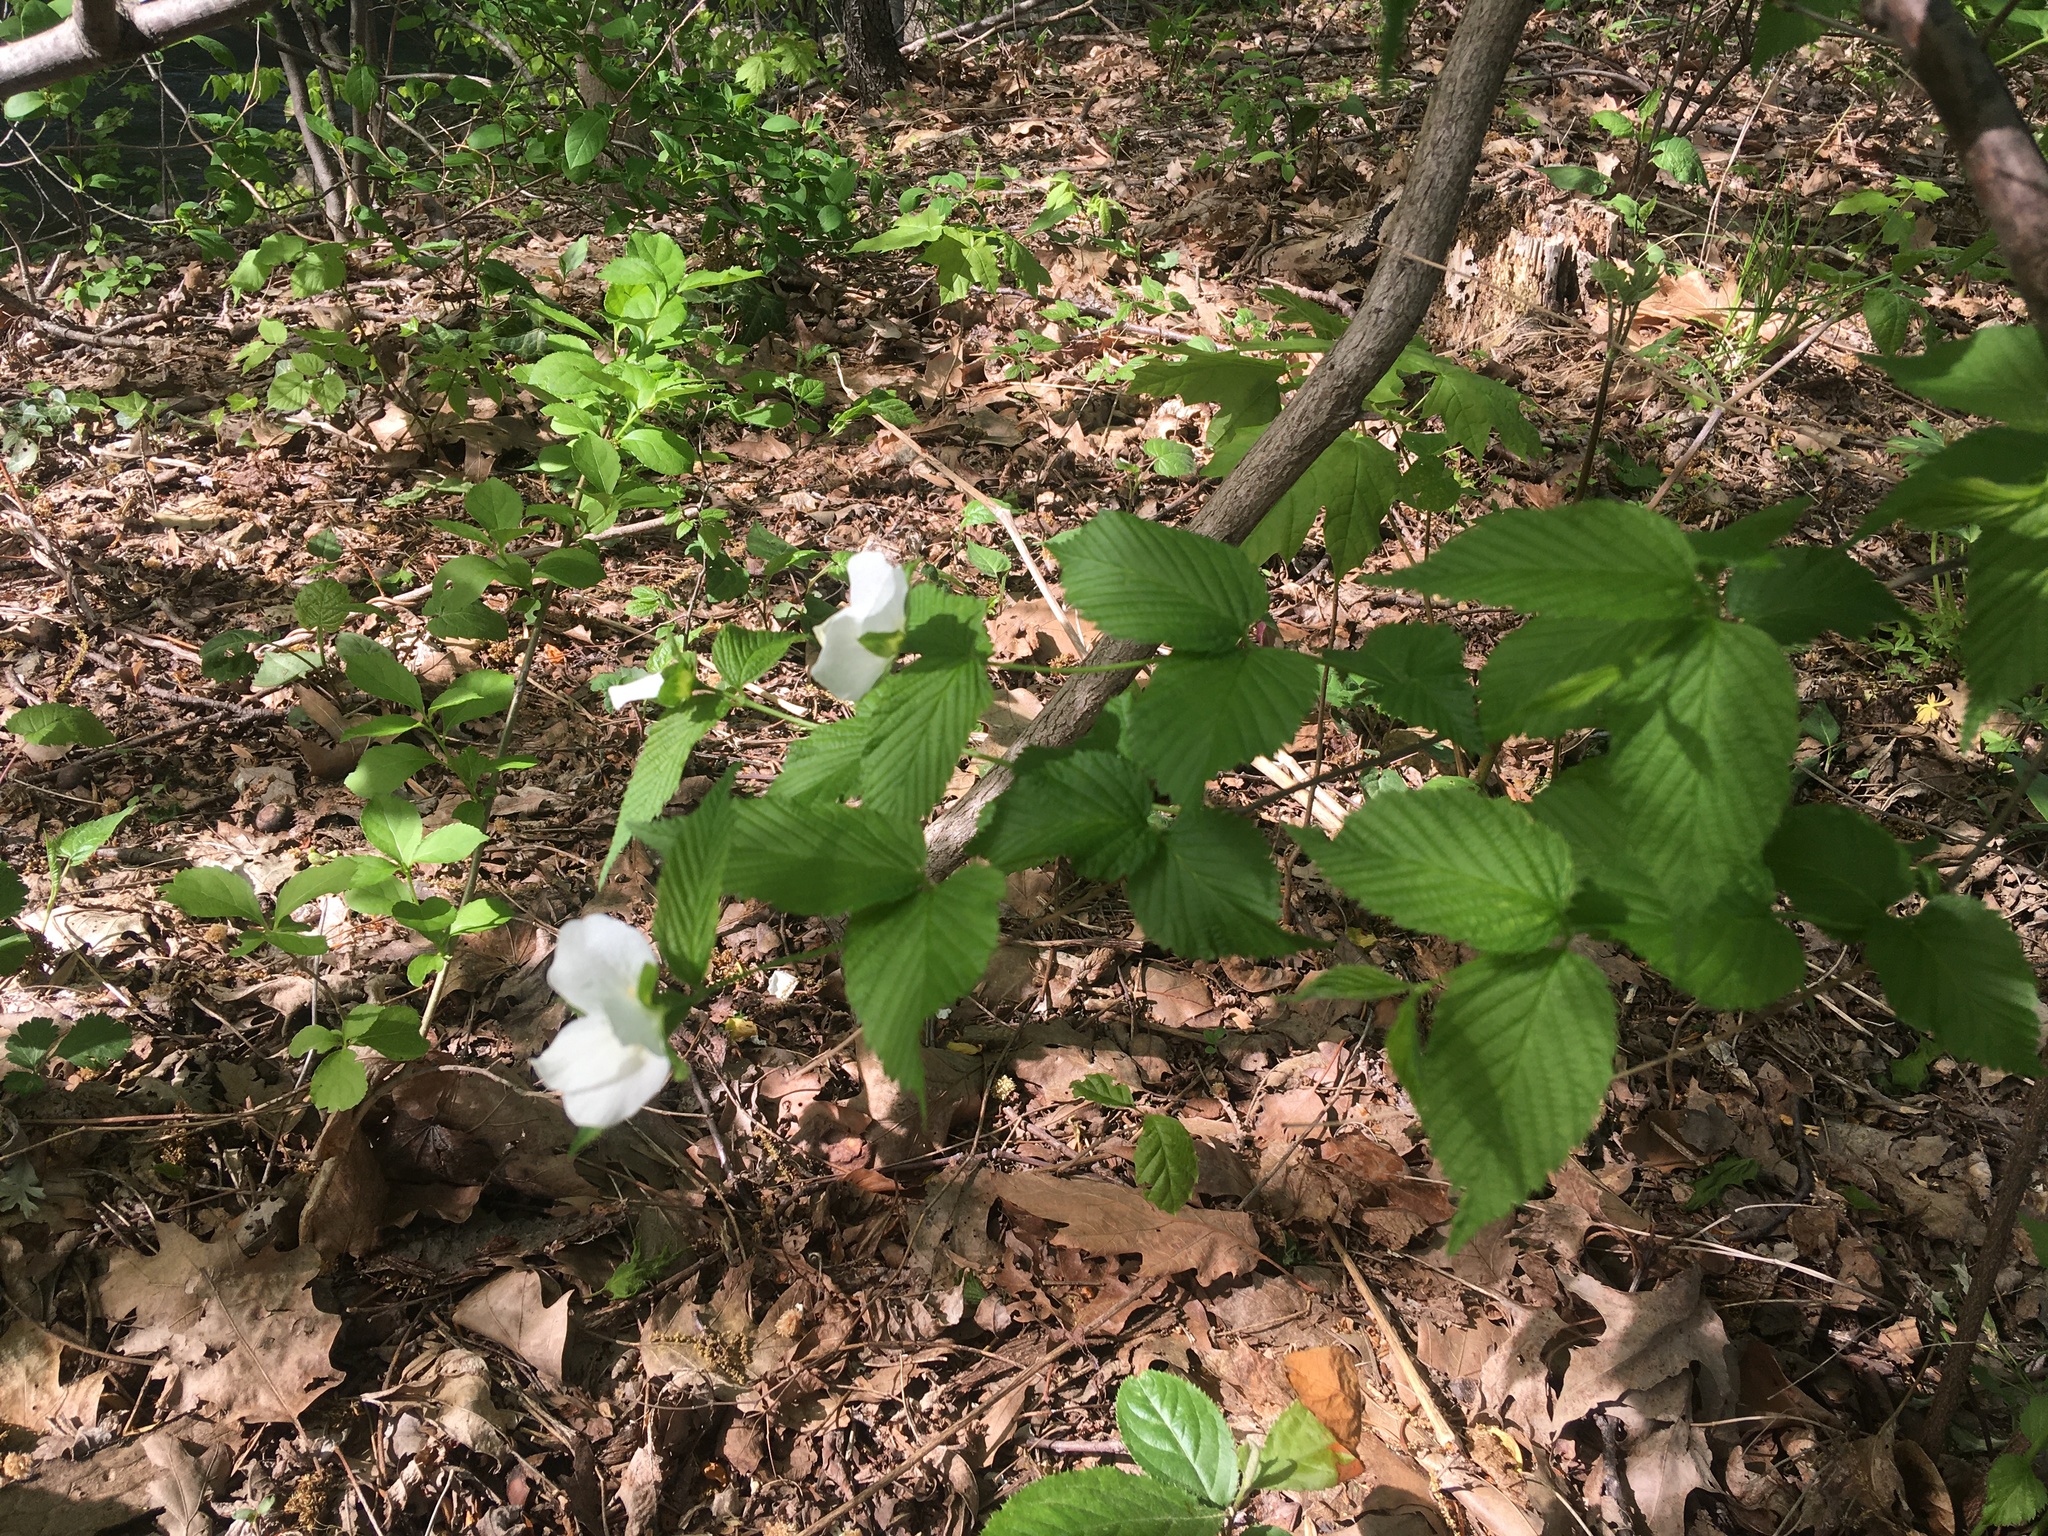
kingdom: Plantae
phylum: Tracheophyta
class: Magnoliopsida
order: Rosales
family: Rosaceae
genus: Rhodotypos
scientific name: Rhodotypos scandens
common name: Jetbead
